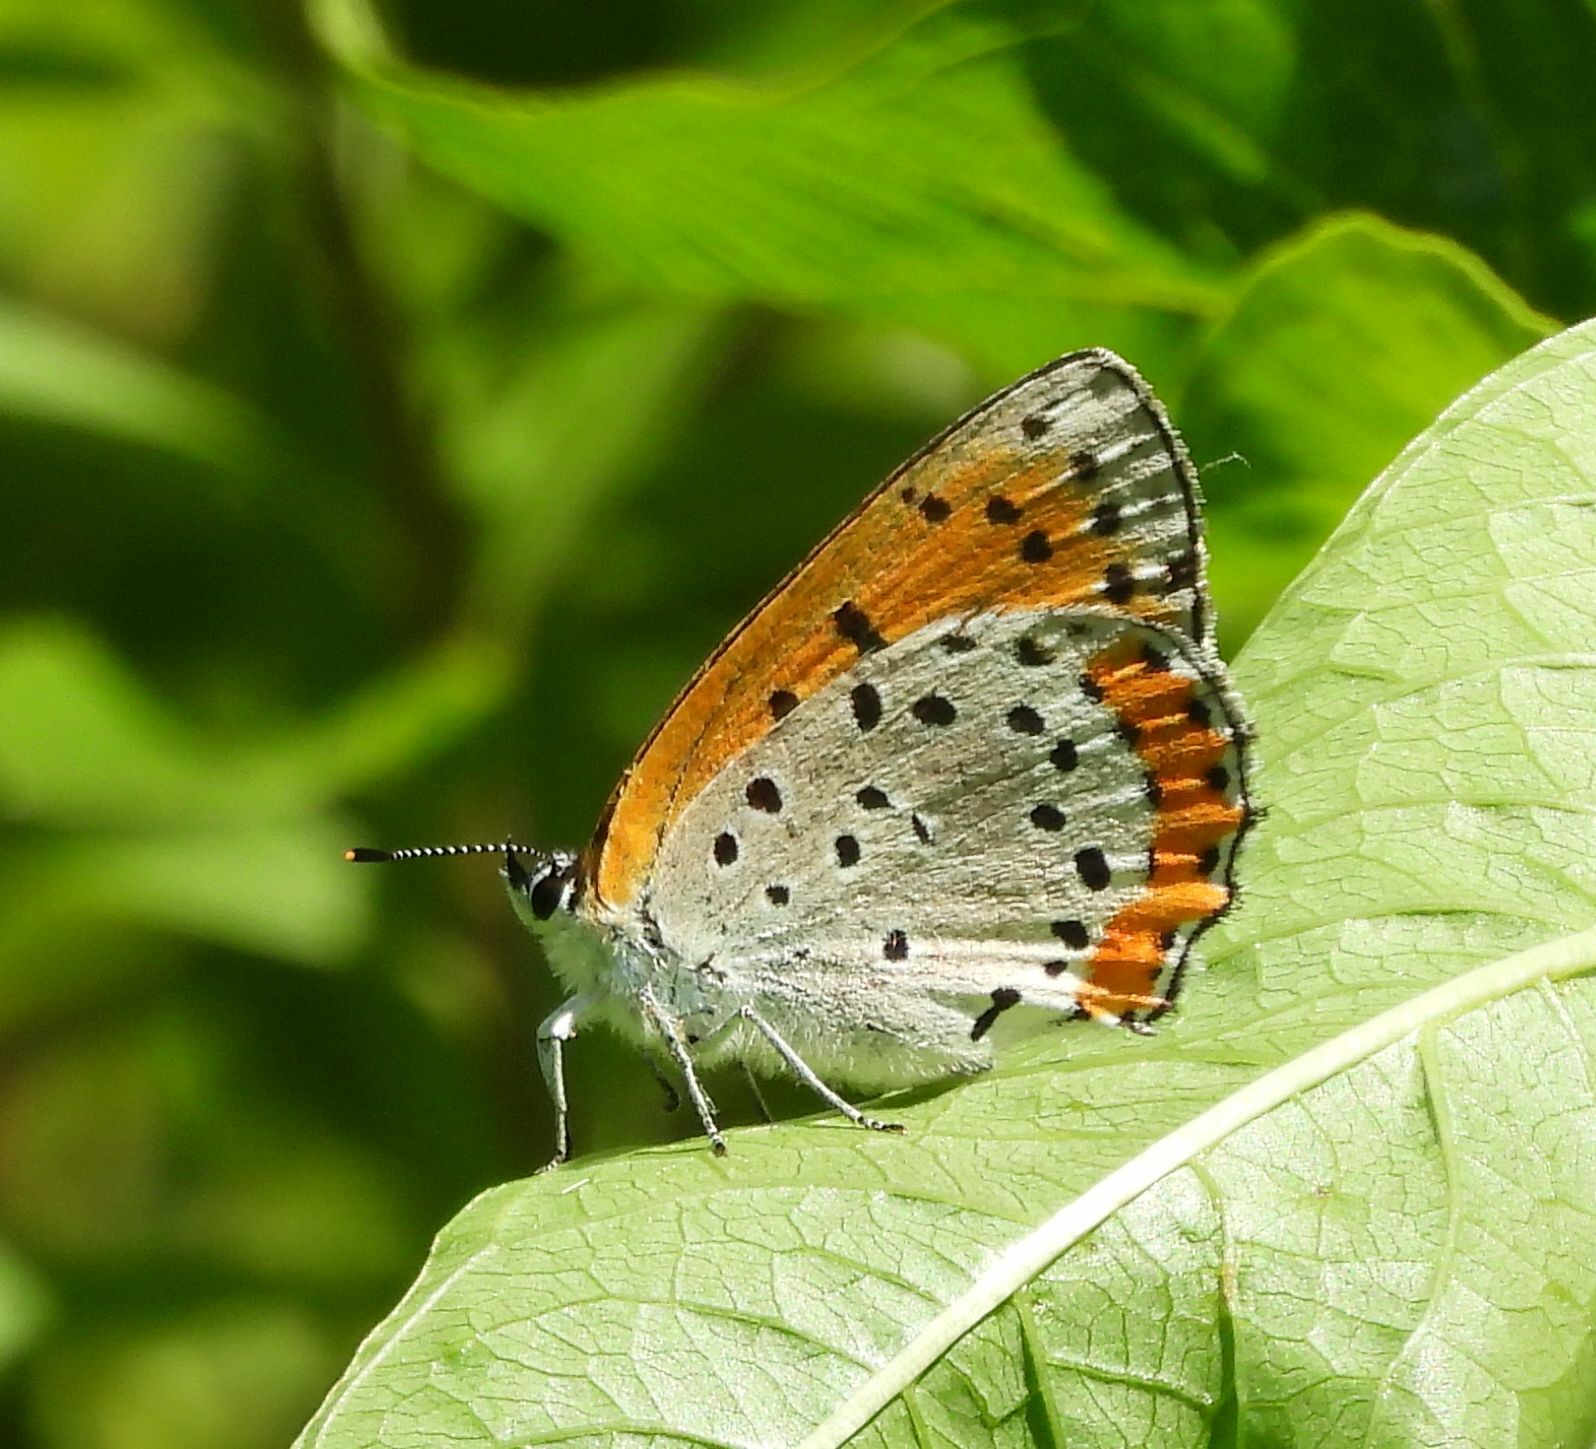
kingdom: Animalia
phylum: Arthropoda
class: Insecta
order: Lepidoptera
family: Lycaenidae
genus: Tharsalea
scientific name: Tharsalea hyllus
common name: Bronze copper
